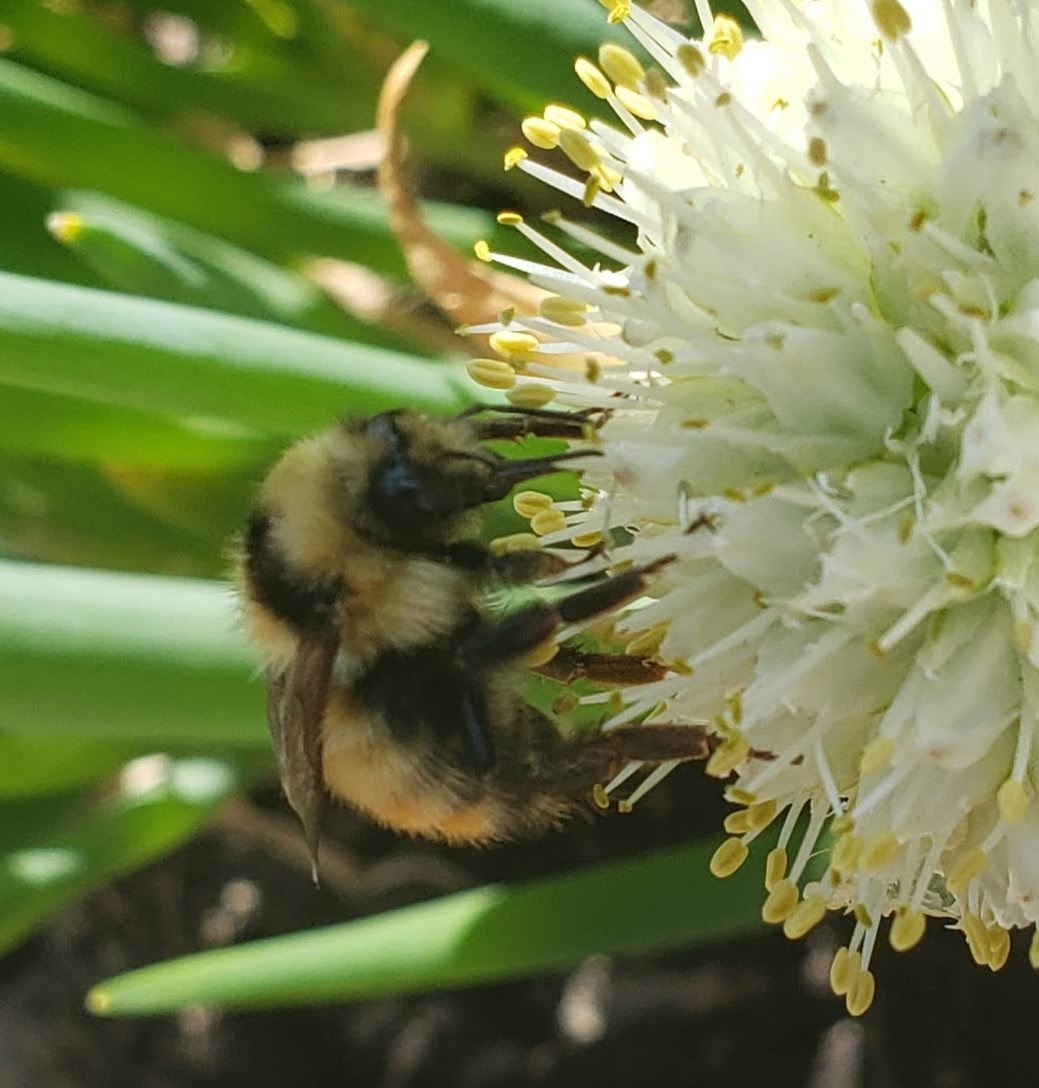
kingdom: Animalia
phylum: Arthropoda
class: Insecta
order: Hymenoptera
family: Apidae
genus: Bombus
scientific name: Bombus centralis
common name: Central bumble bee
